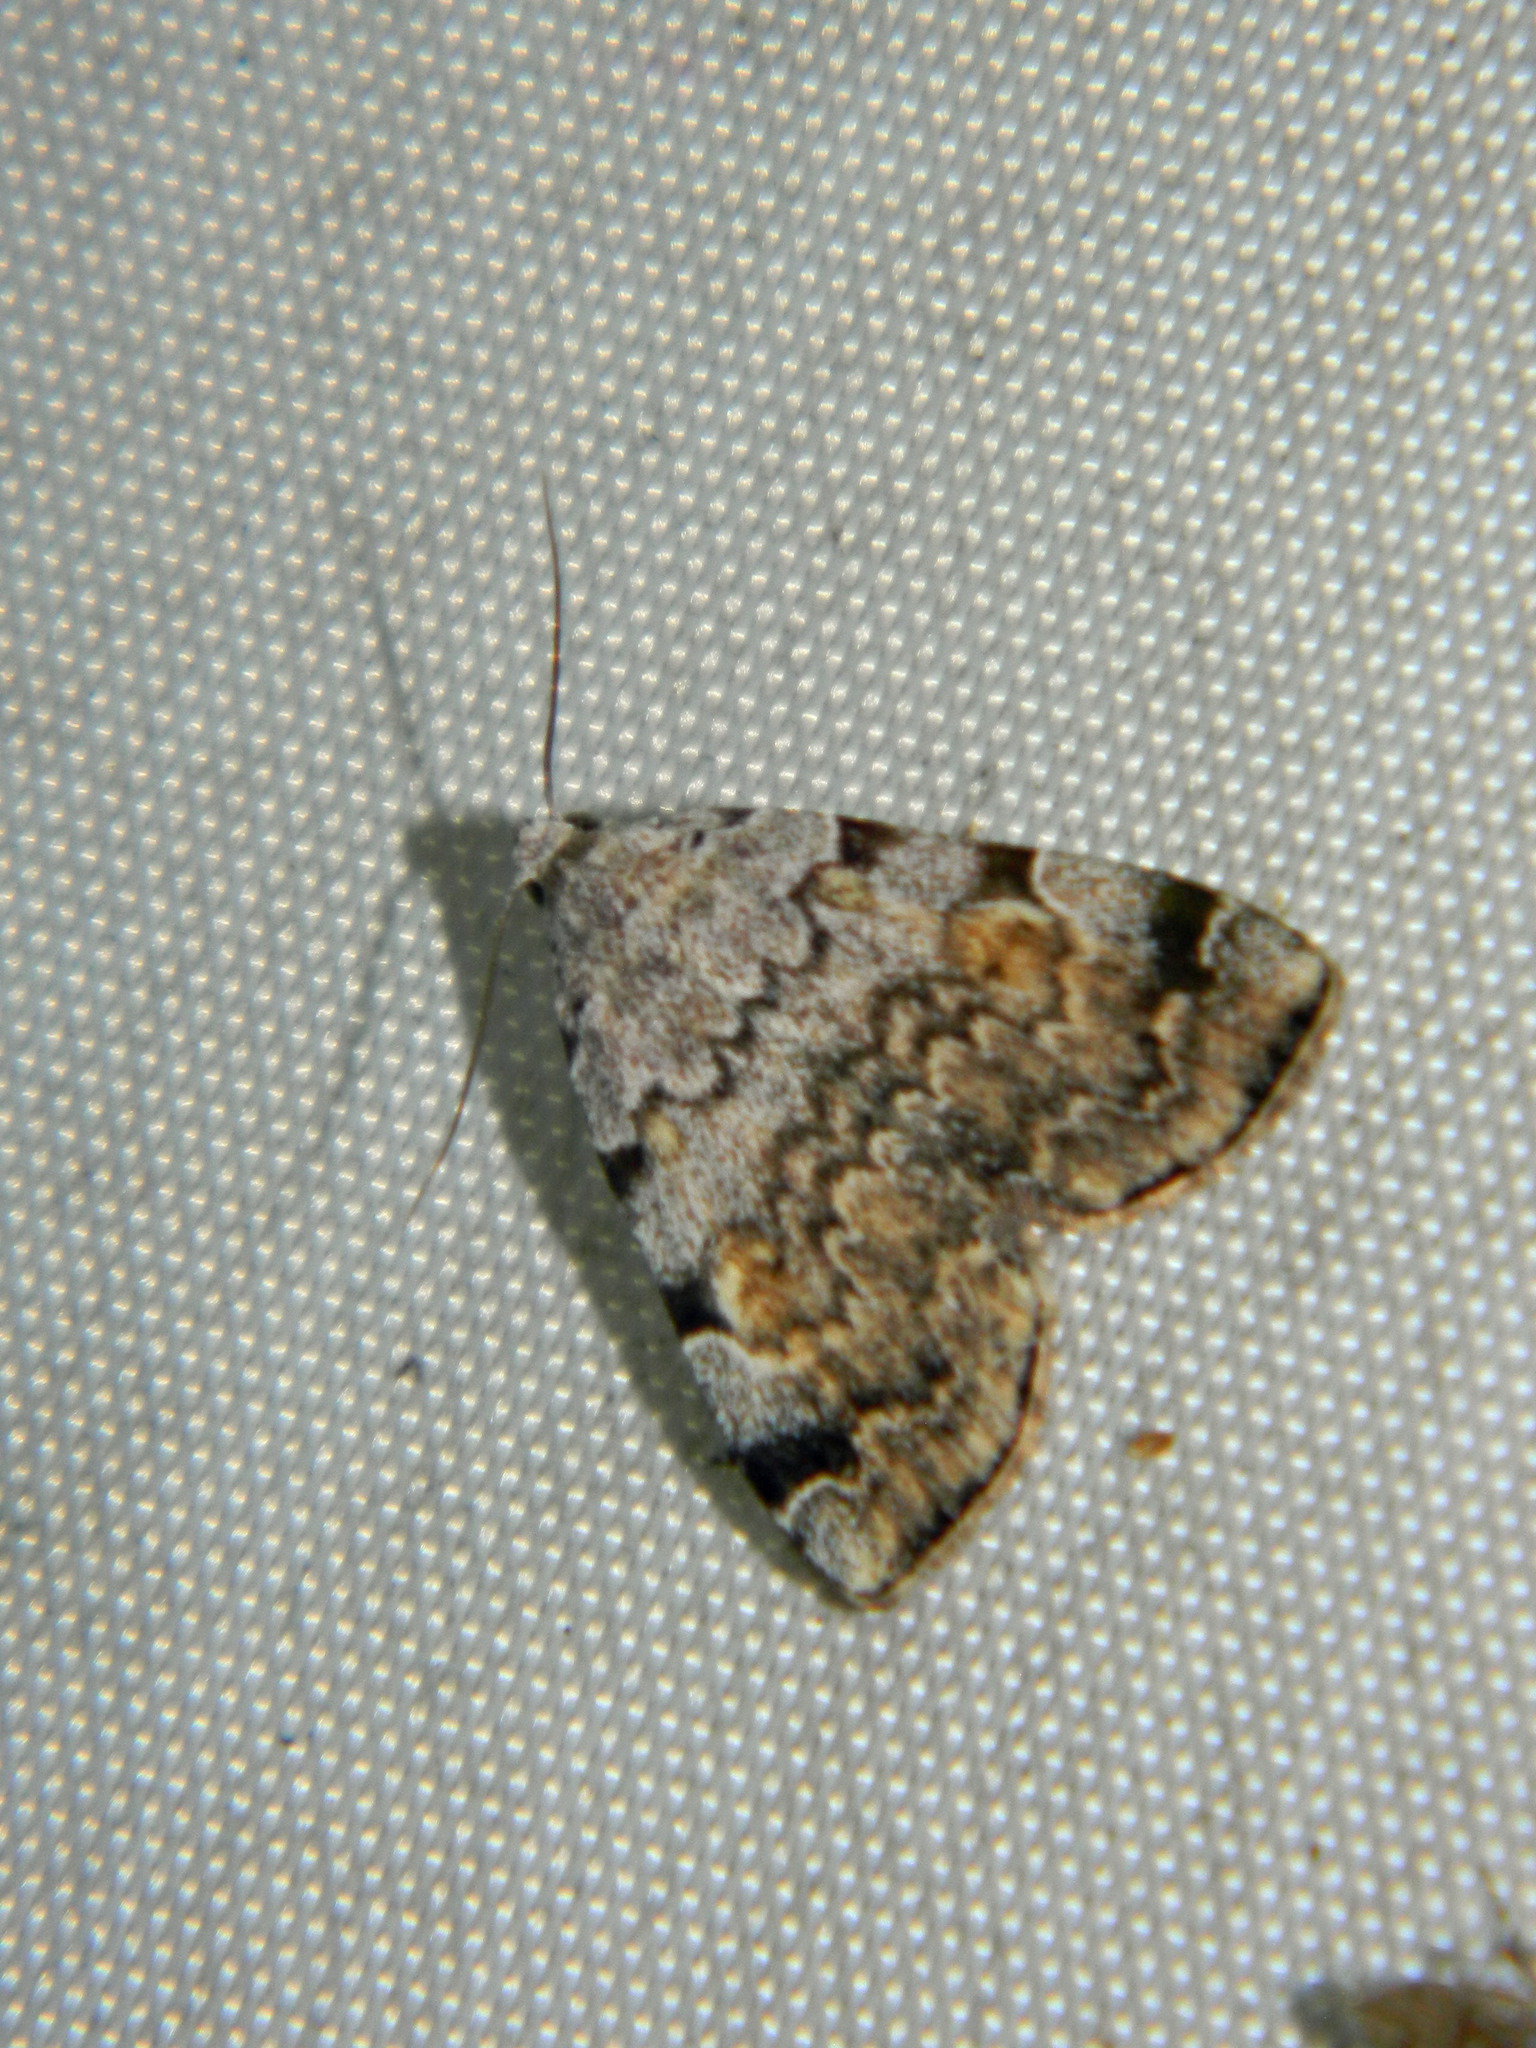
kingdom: Animalia
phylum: Arthropoda
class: Insecta
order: Lepidoptera
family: Erebidae
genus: Idia
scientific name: Idia americalis
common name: American idia moth
